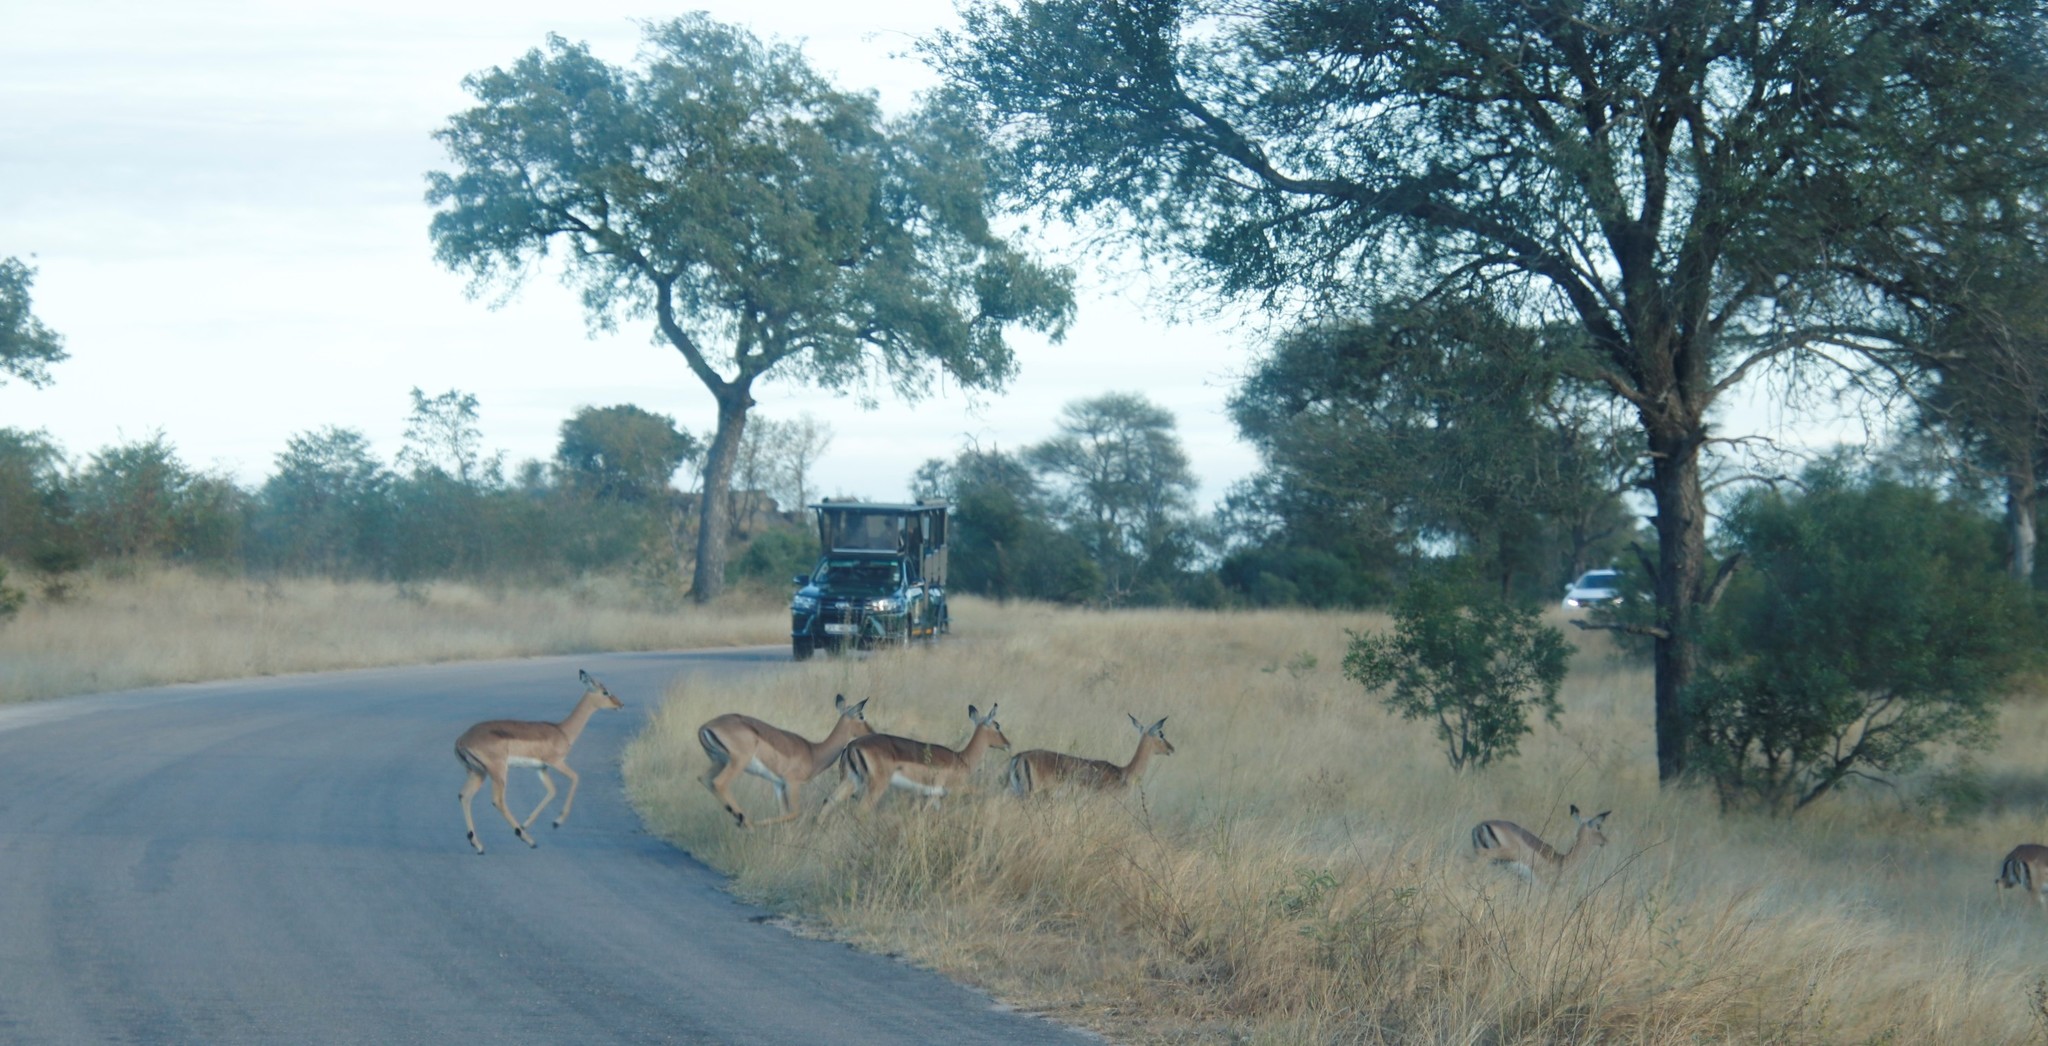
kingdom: Animalia
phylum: Chordata
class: Mammalia
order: Artiodactyla
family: Bovidae
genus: Aepyceros
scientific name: Aepyceros melampus
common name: Impala
